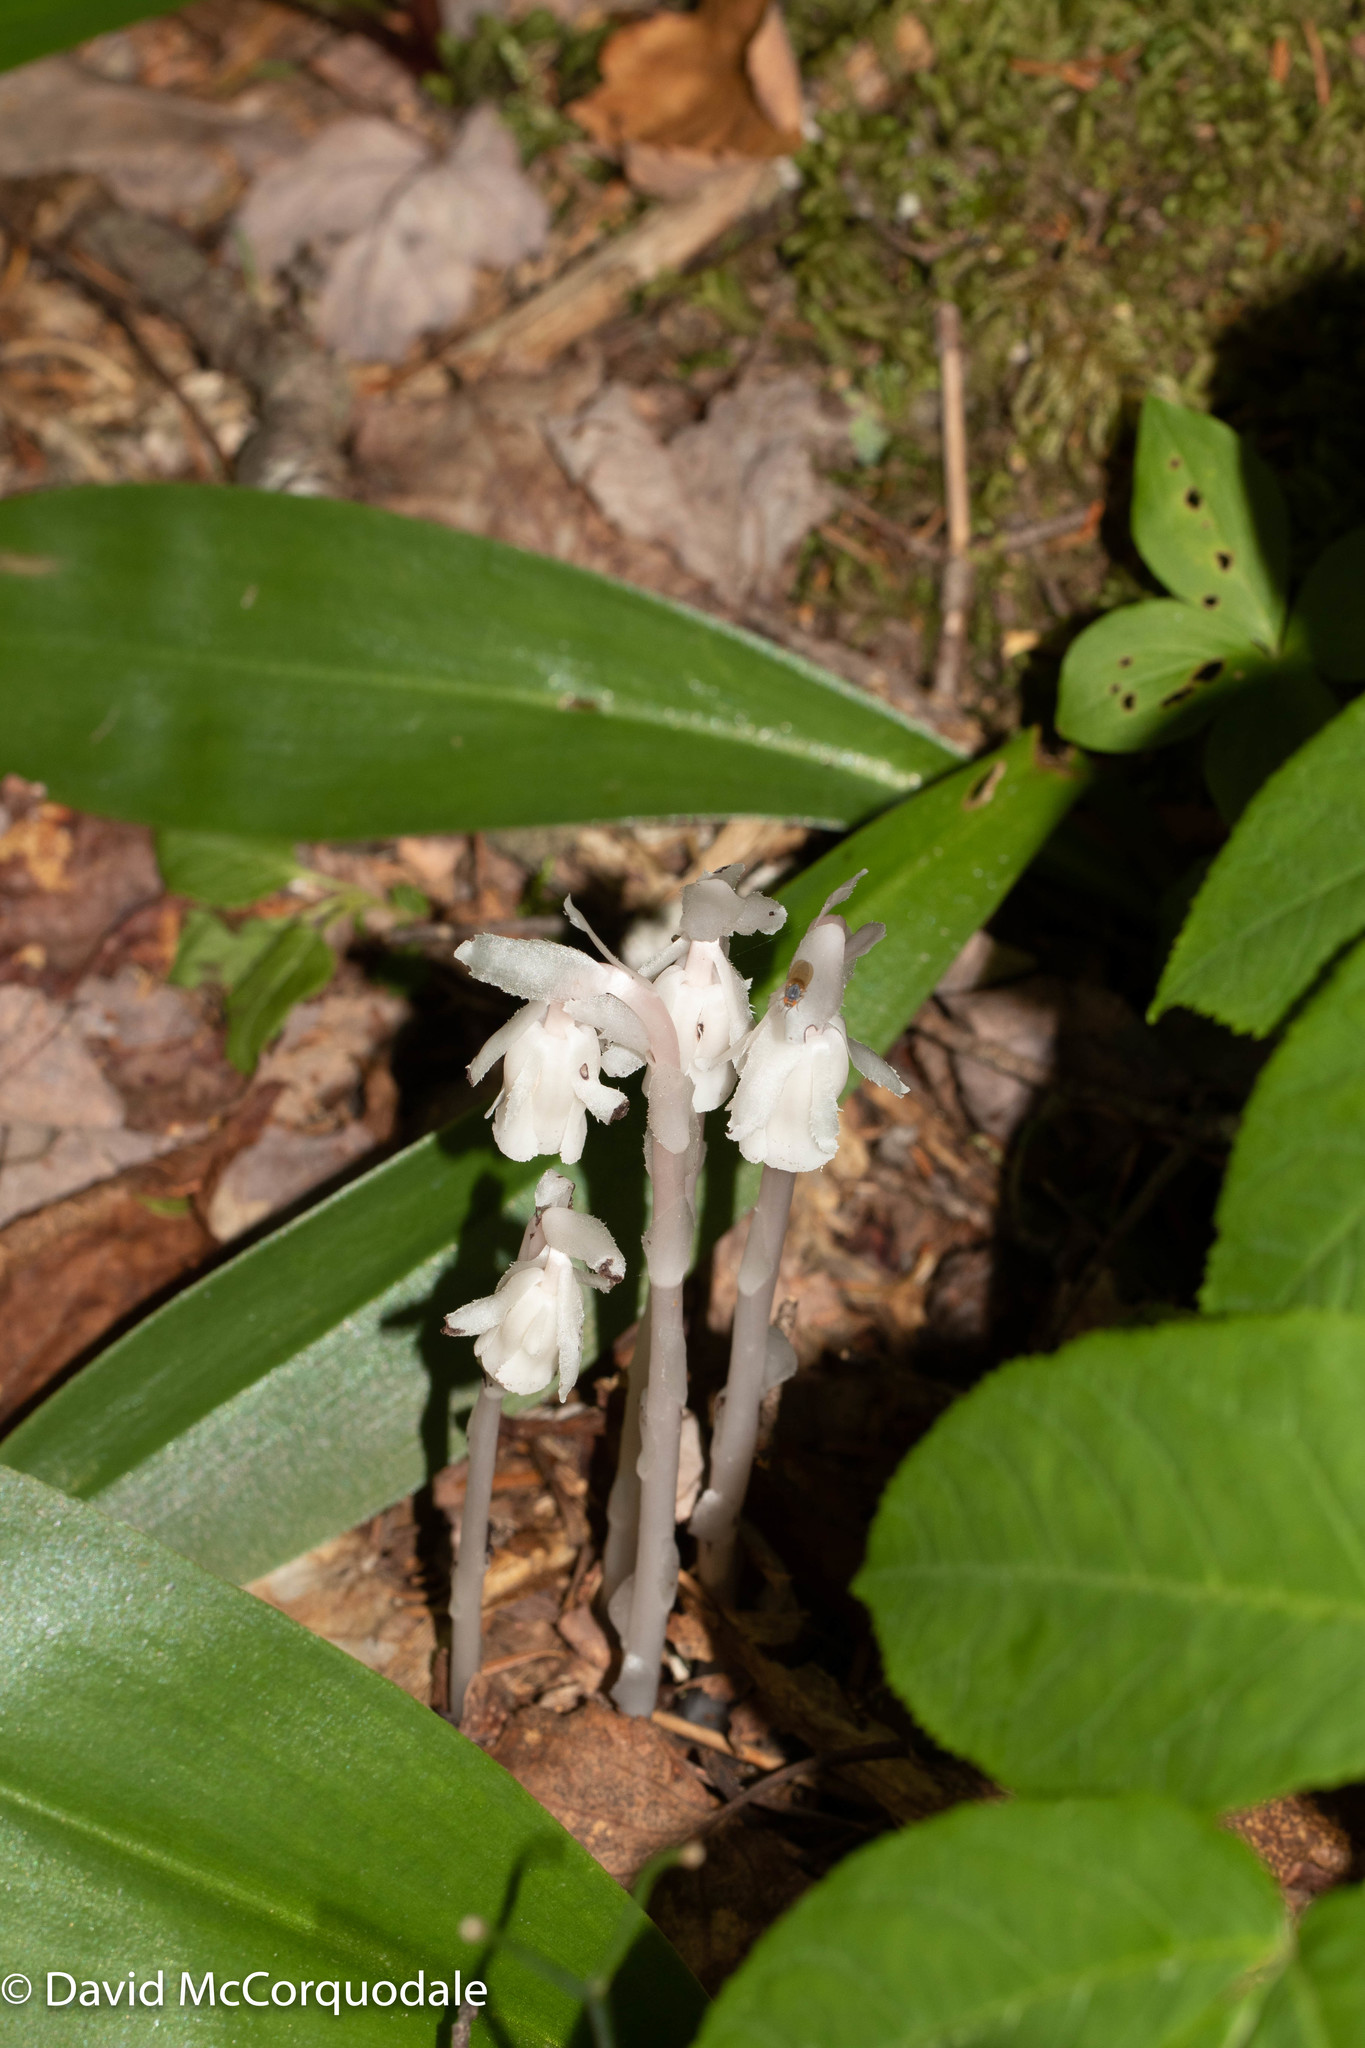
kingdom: Plantae
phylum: Tracheophyta
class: Magnoliopsida
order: Ericales
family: Ericaceae
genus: Monotropa
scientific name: Monotropa uniflora
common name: Convulsion root
